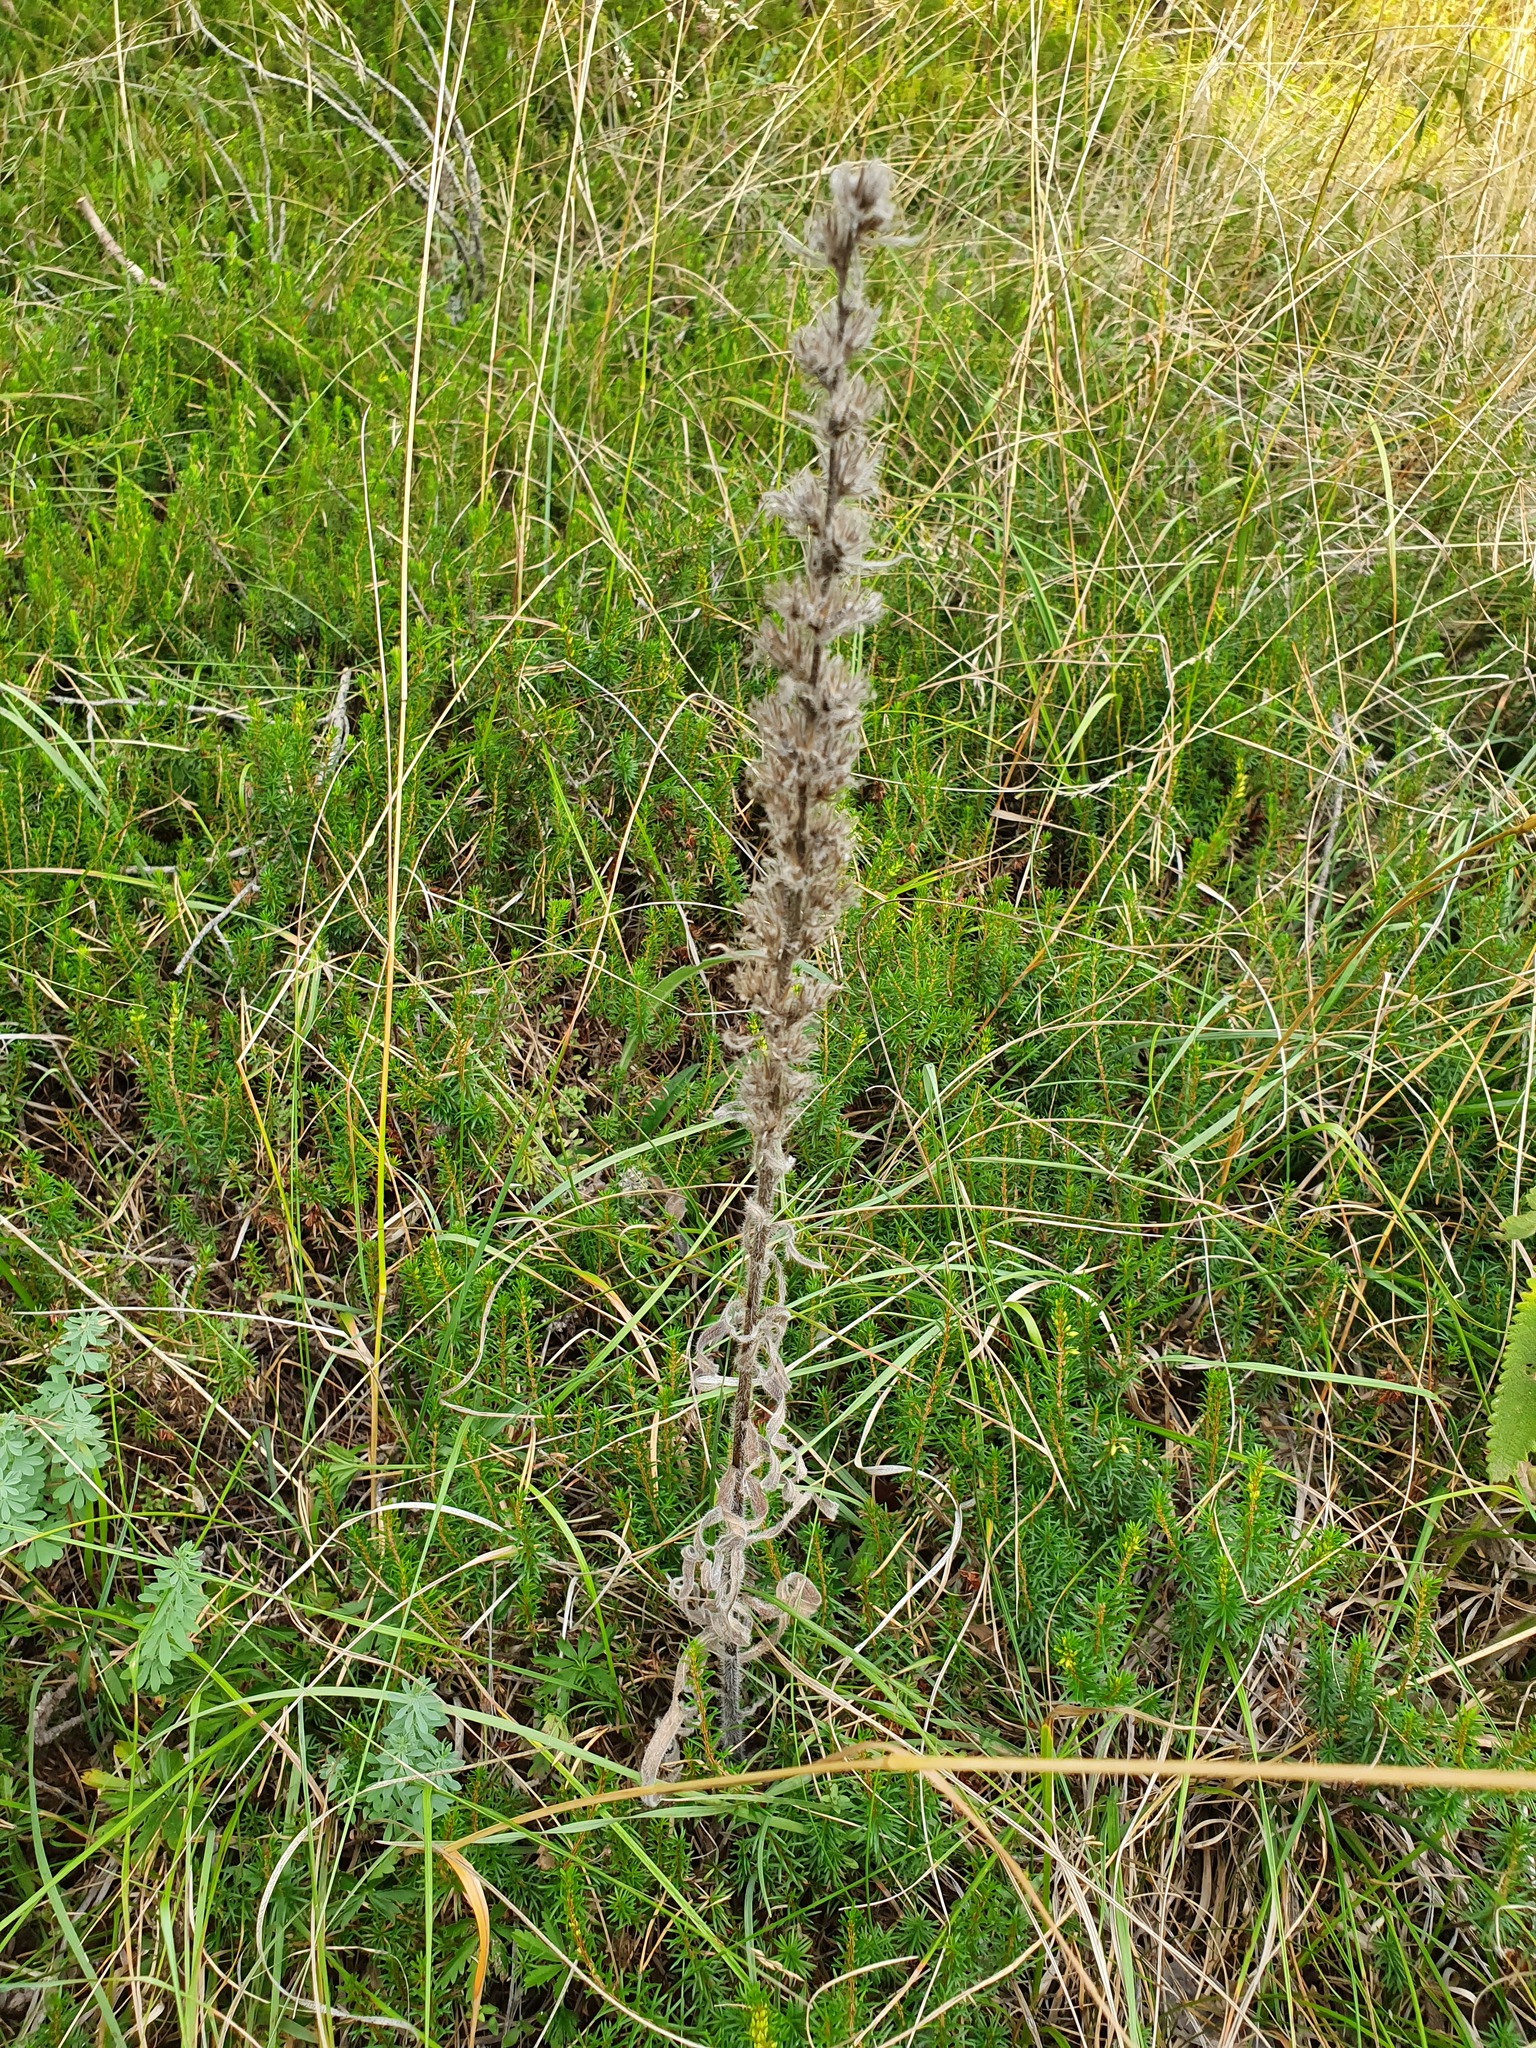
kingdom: Plantae
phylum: Tracheophyta
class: Magnoliopsida
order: Boraginales
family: Boraginaceae
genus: Pontechium
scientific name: Pontechium maculatum
